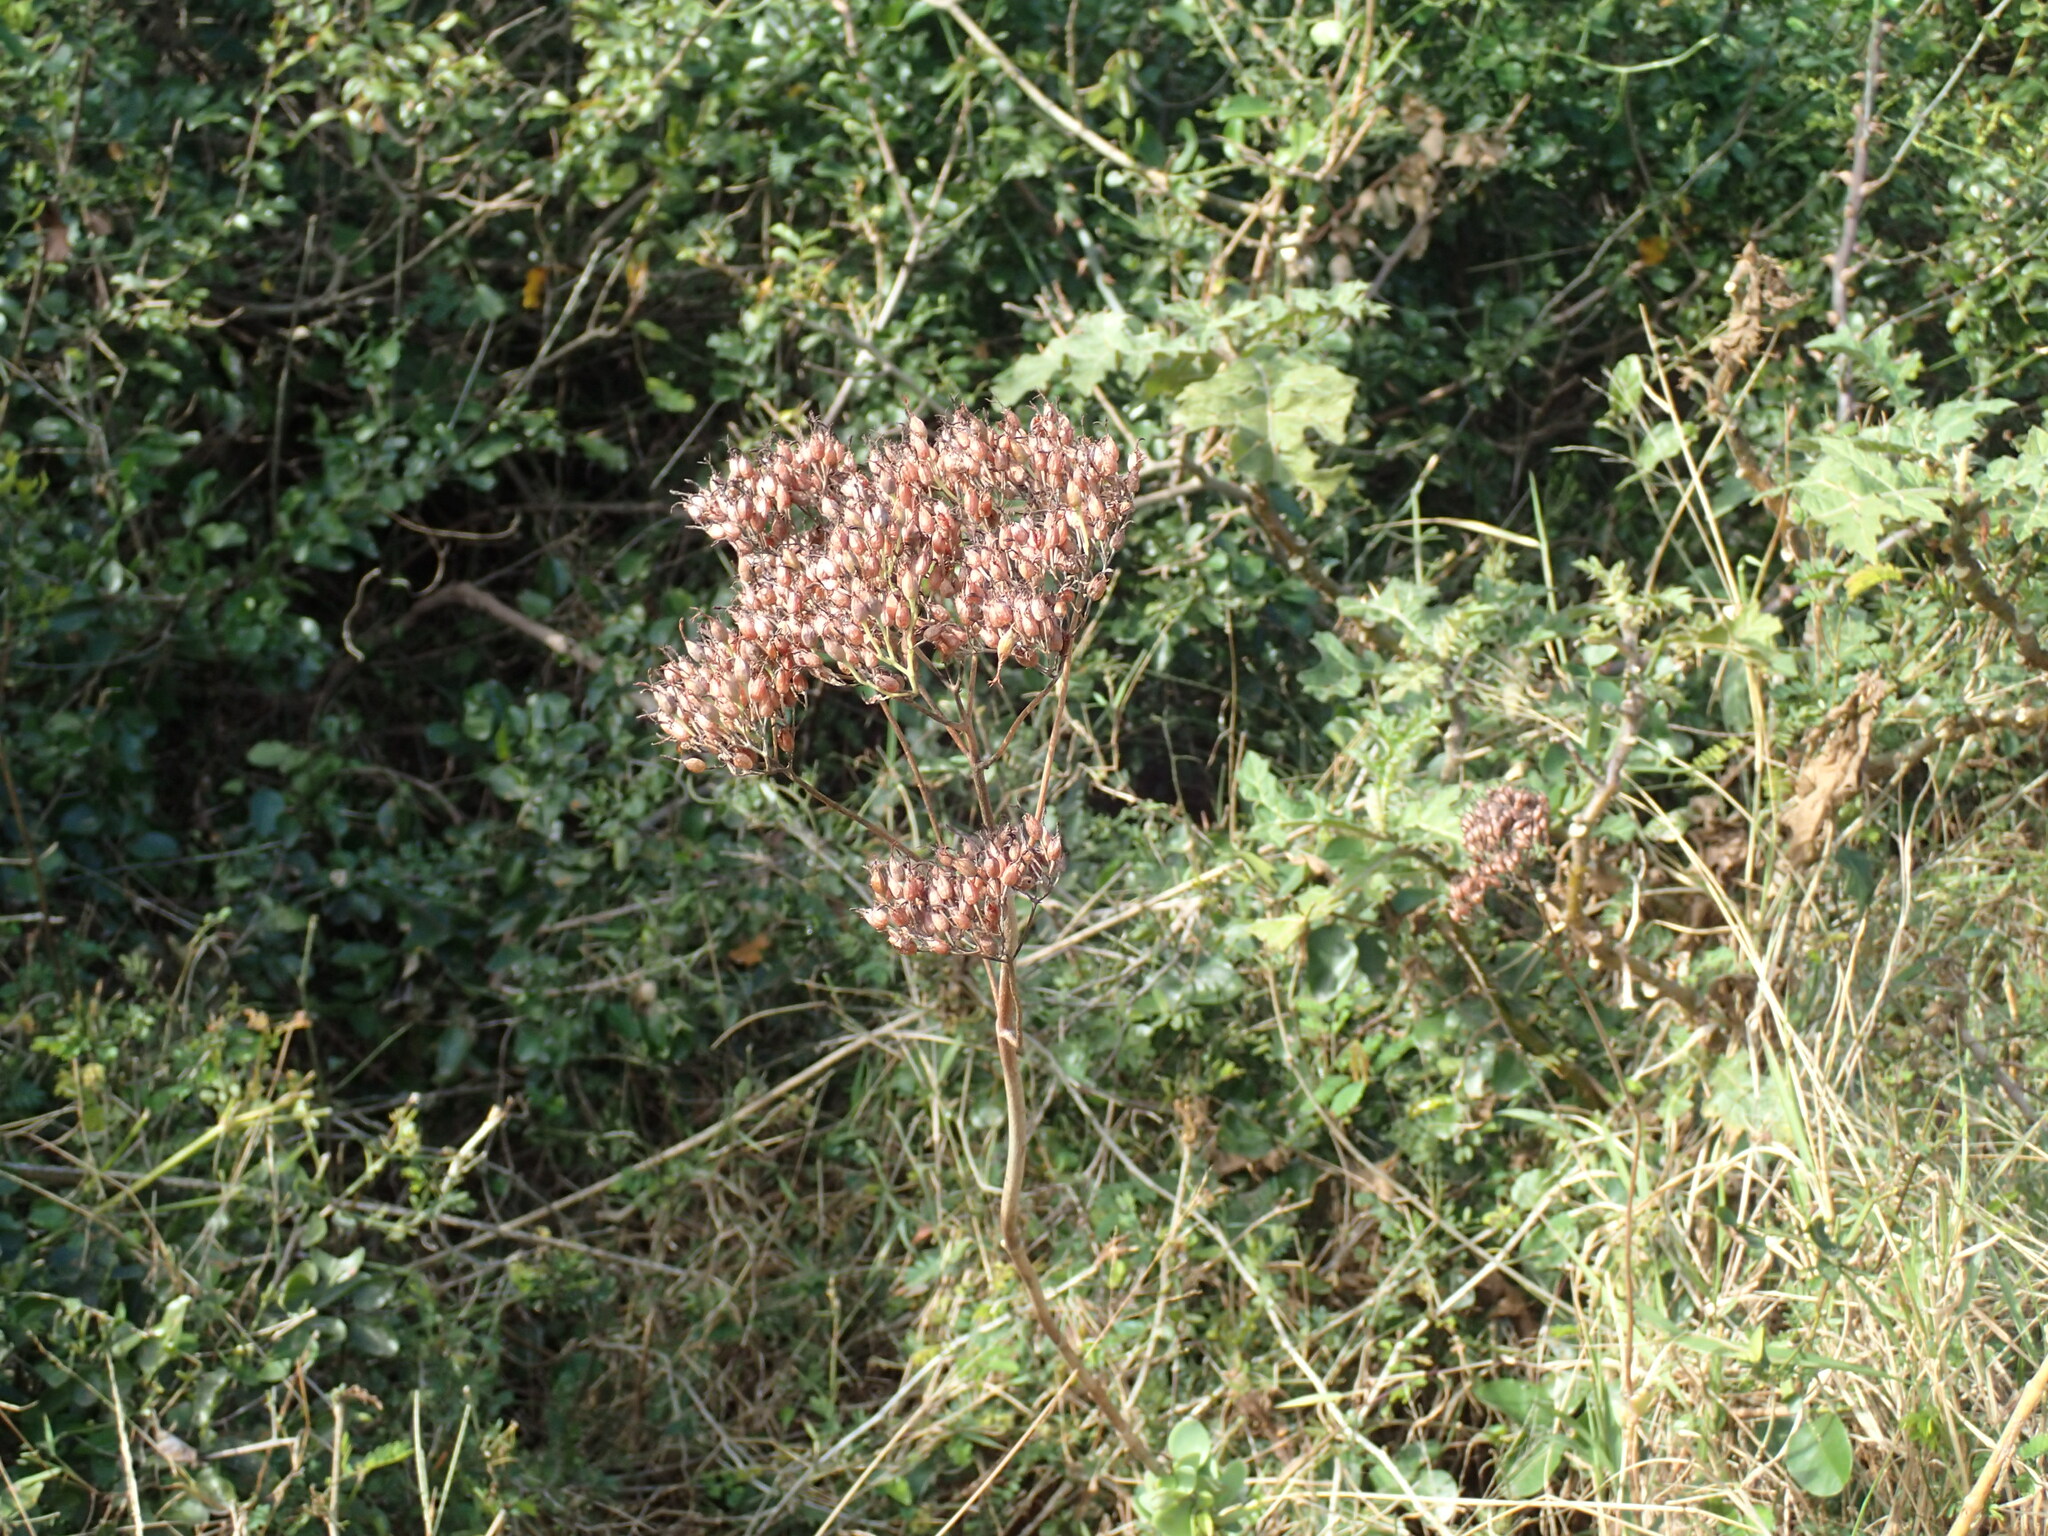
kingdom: Plantae
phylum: Tracheophyta
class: Magnoliopsida
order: Saxifragales
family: Crassulaceae
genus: Kalanchoe
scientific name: Kalanchoe rotundifolia
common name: Common kalanchoe
